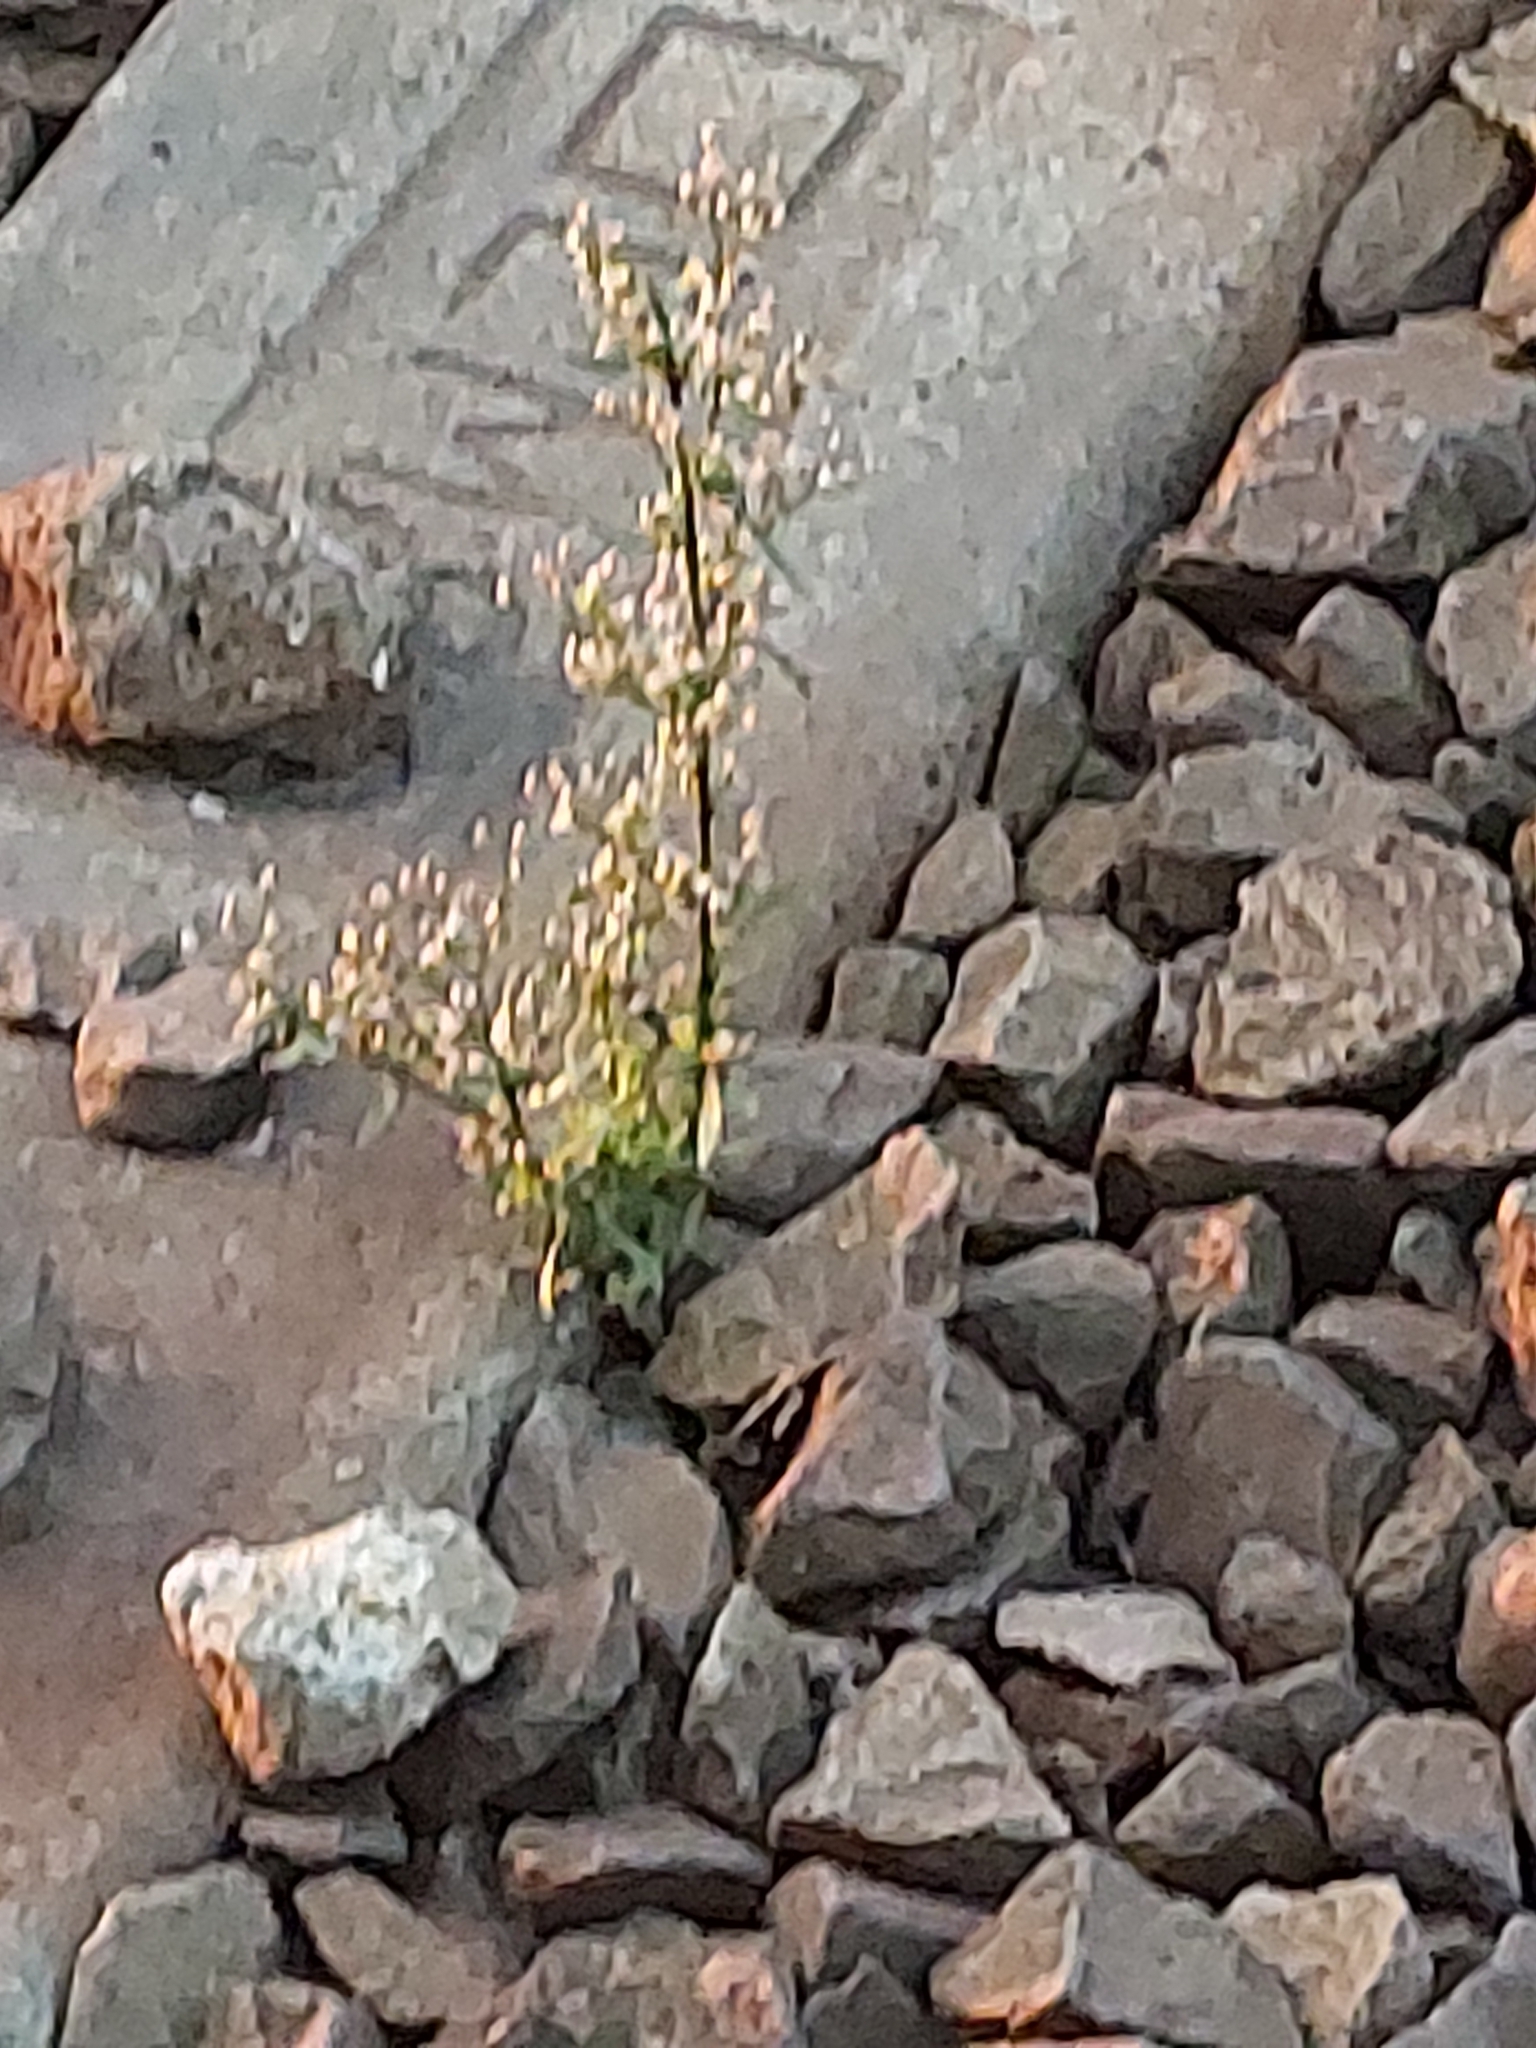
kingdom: Plantae
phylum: Tracheophyta
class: Magnoliopsida
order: Asterales
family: Asteraceae
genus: Erigeron
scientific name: Erigeron canadensis
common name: Canadian fleabane
